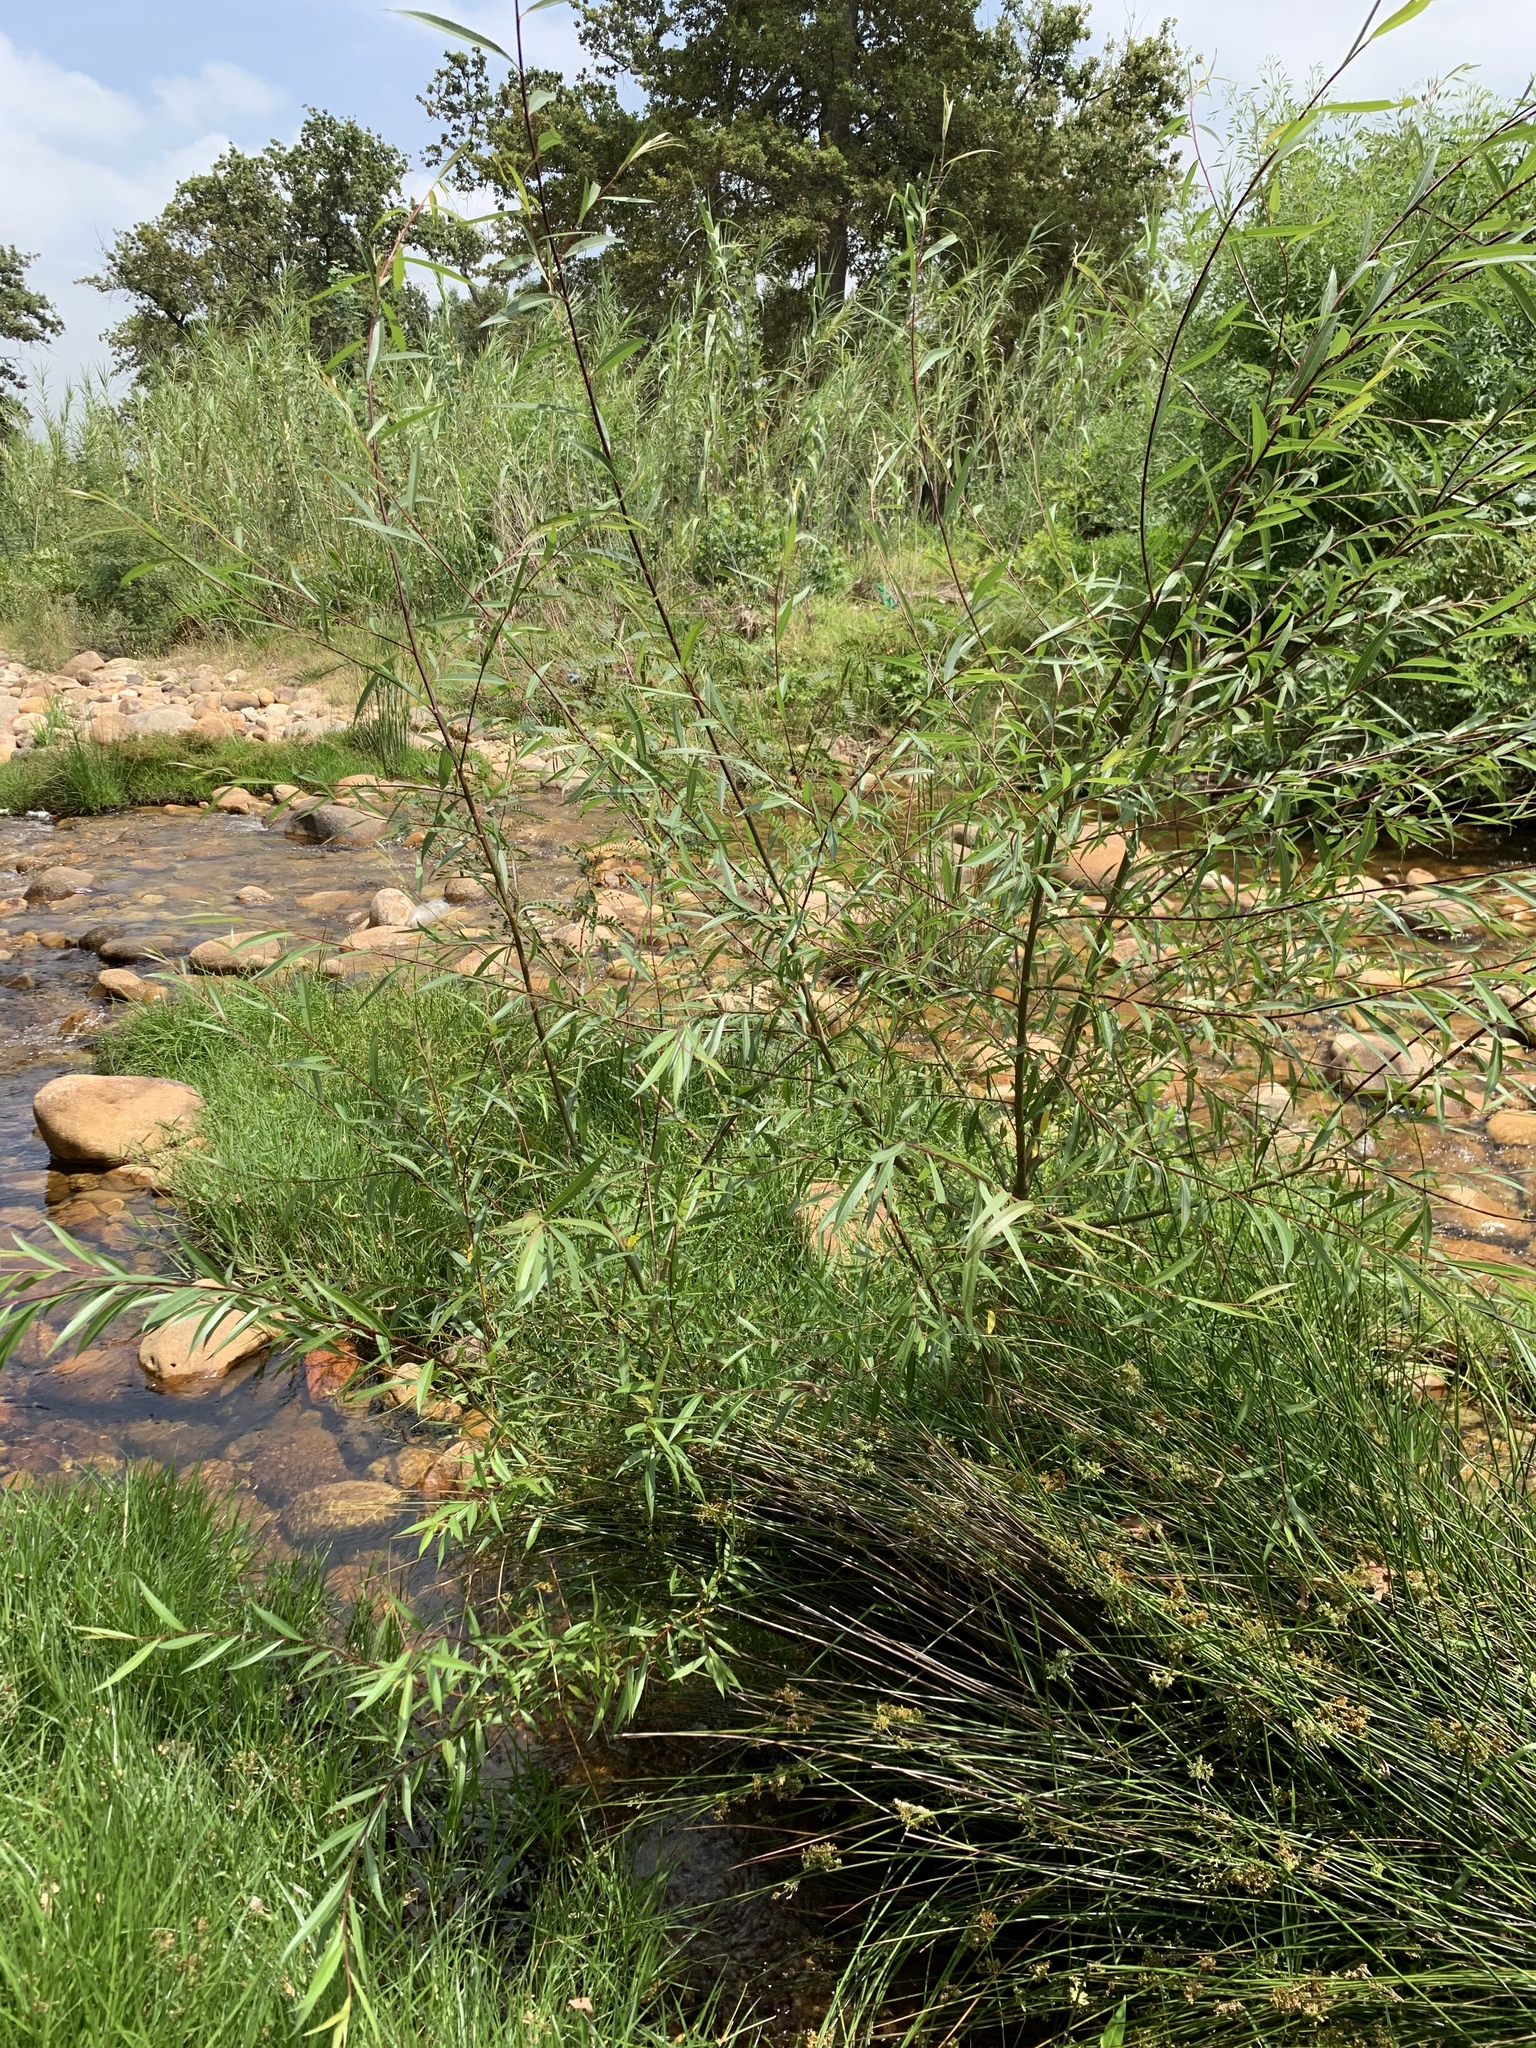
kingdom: Plantae
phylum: Tracheophyta
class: Magnoliopsida
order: Malpighiales
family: Salicaceae
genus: Salix
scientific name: Salix mucronata
